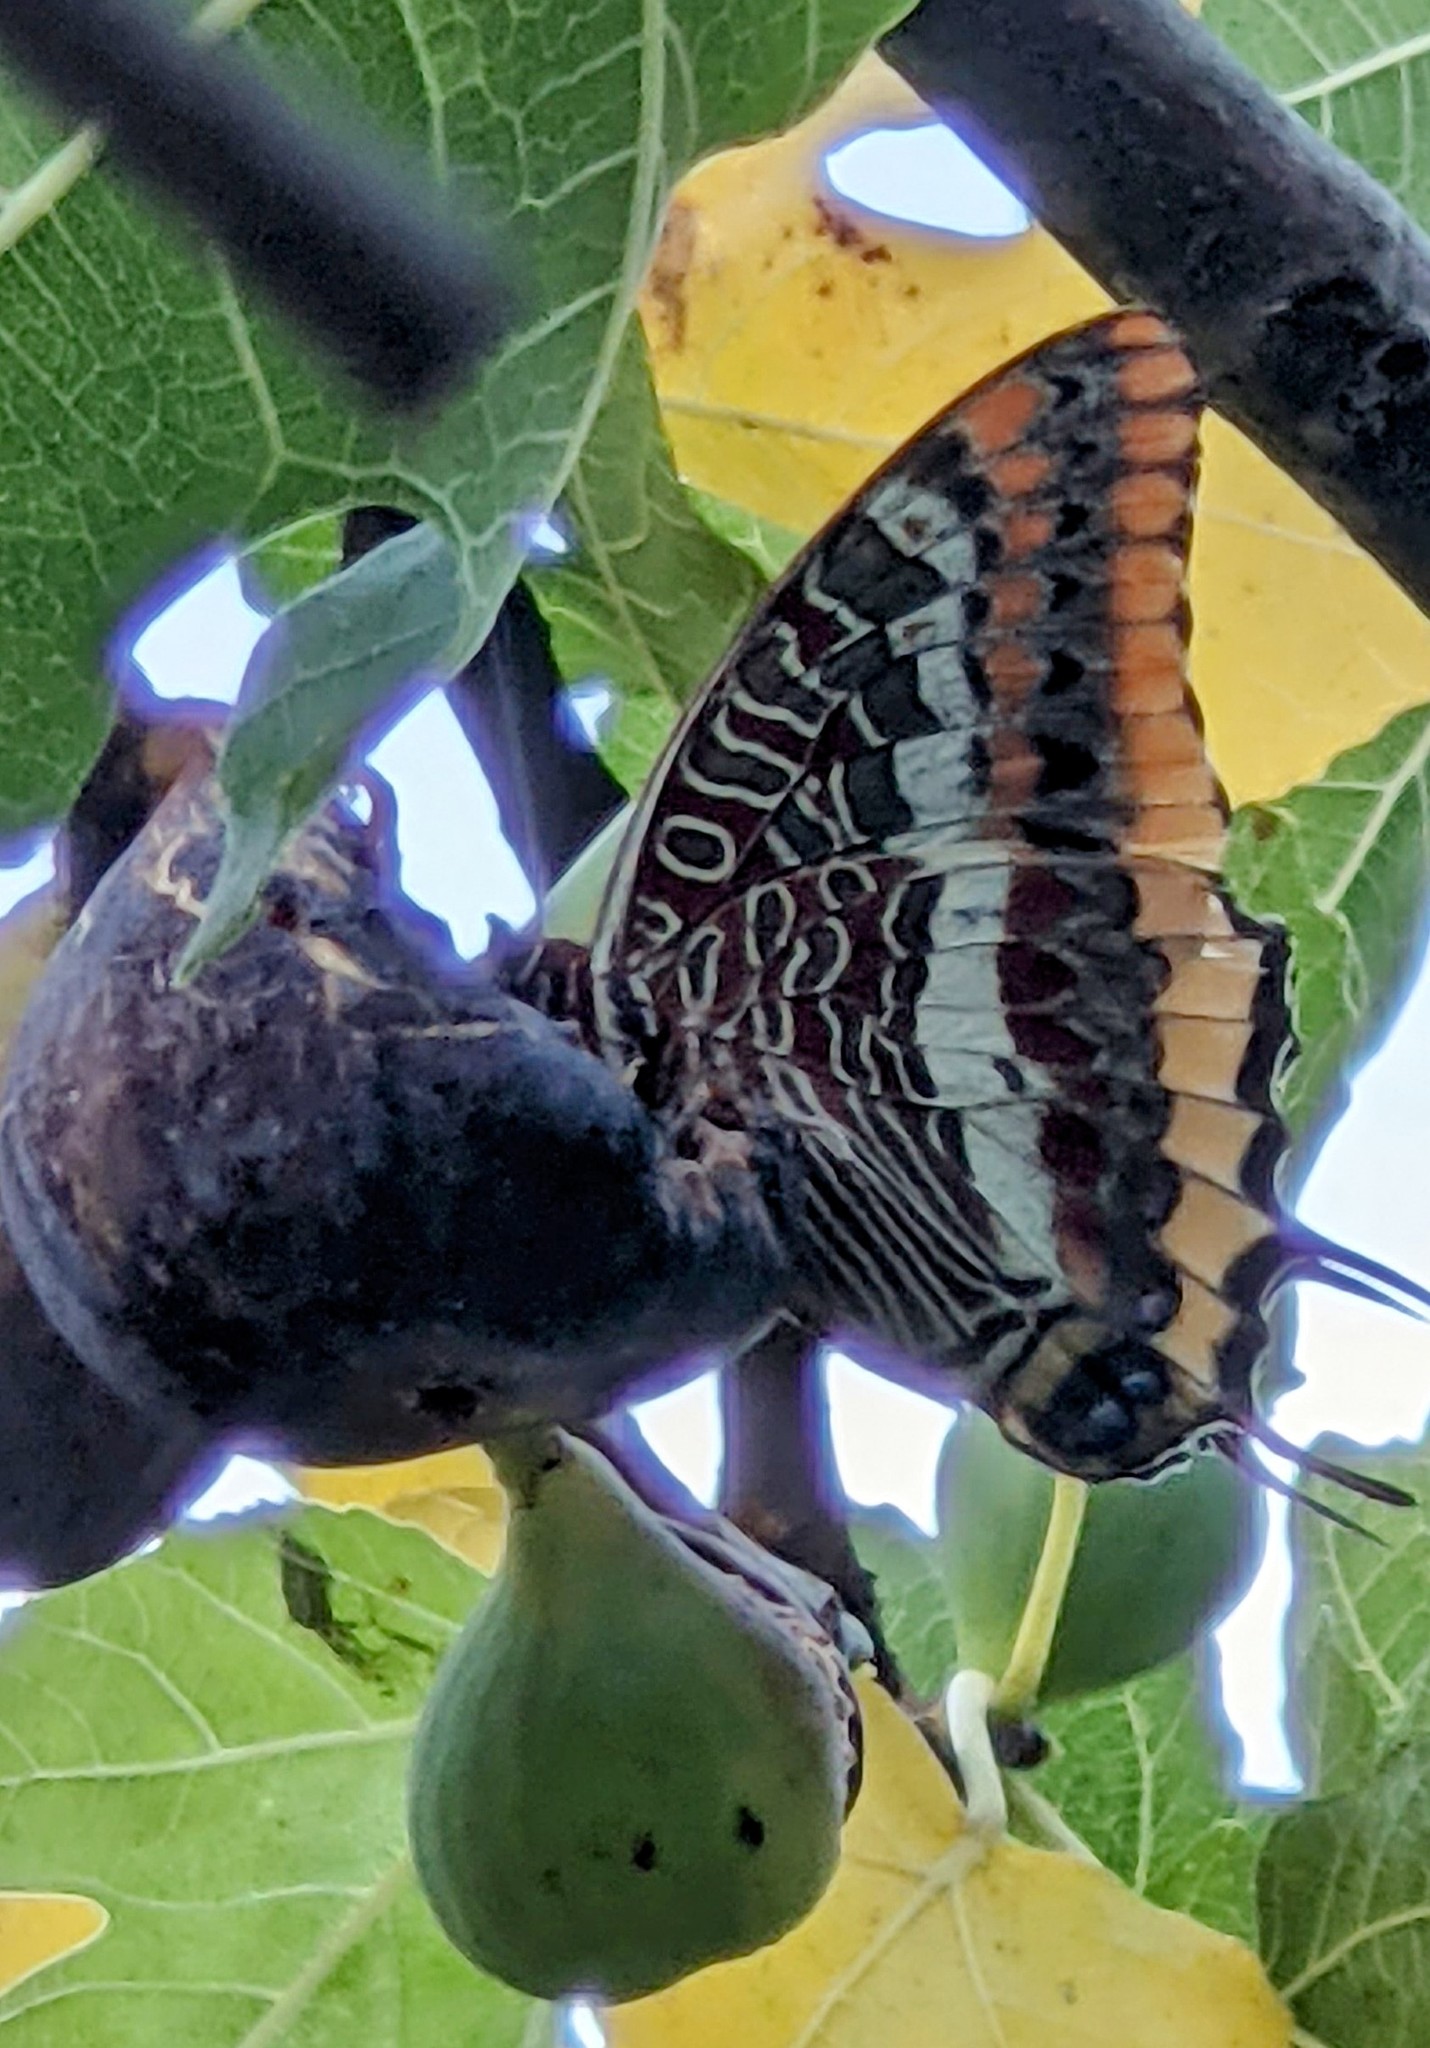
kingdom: Animalia
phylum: Arthropoda
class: Insecta
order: Lepidoptera
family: Nymphalidae
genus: Charaxes
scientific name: Charaxes jasius
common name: Two tailed pasha
